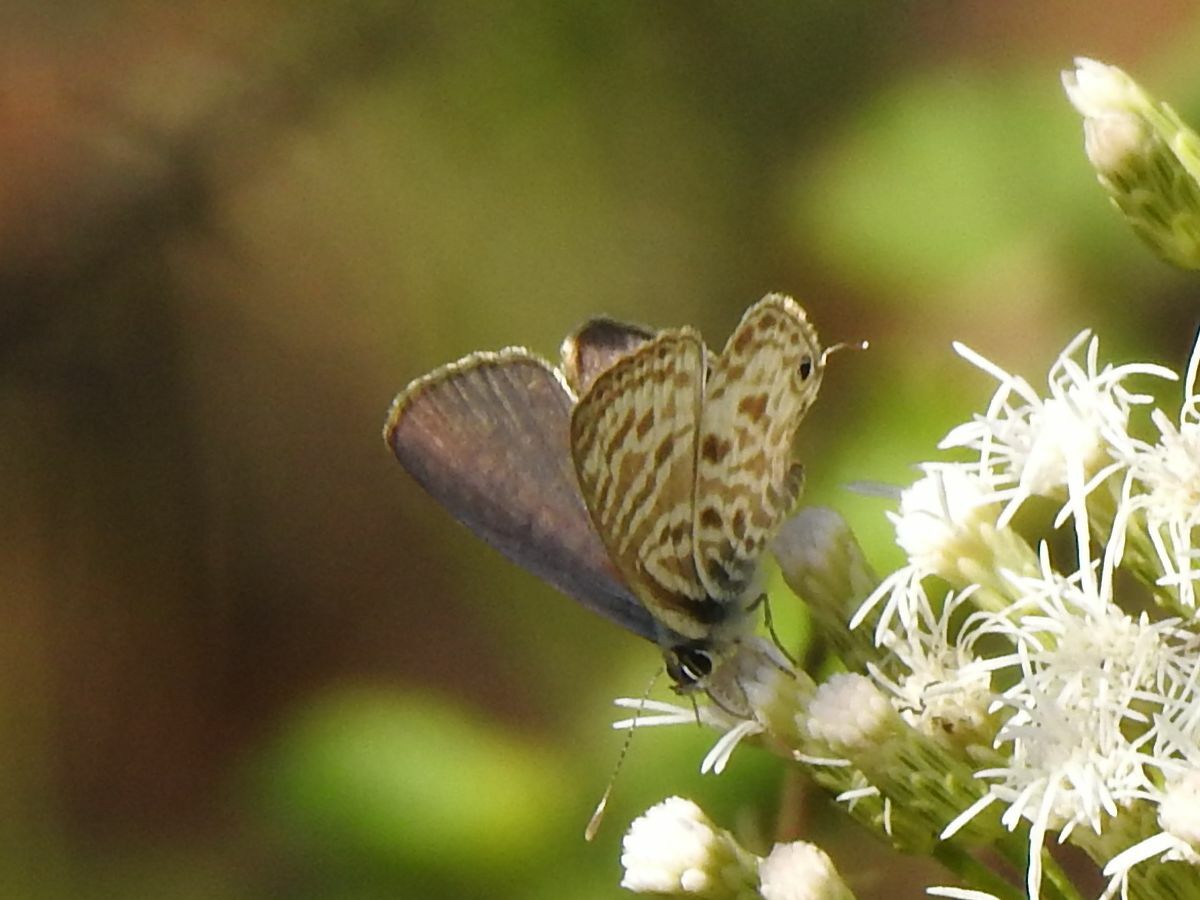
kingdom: Animalia
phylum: Arthropoda
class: Insecta
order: Lepidoptera
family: Lycaenidae
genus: Leptotes
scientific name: Leptotes
